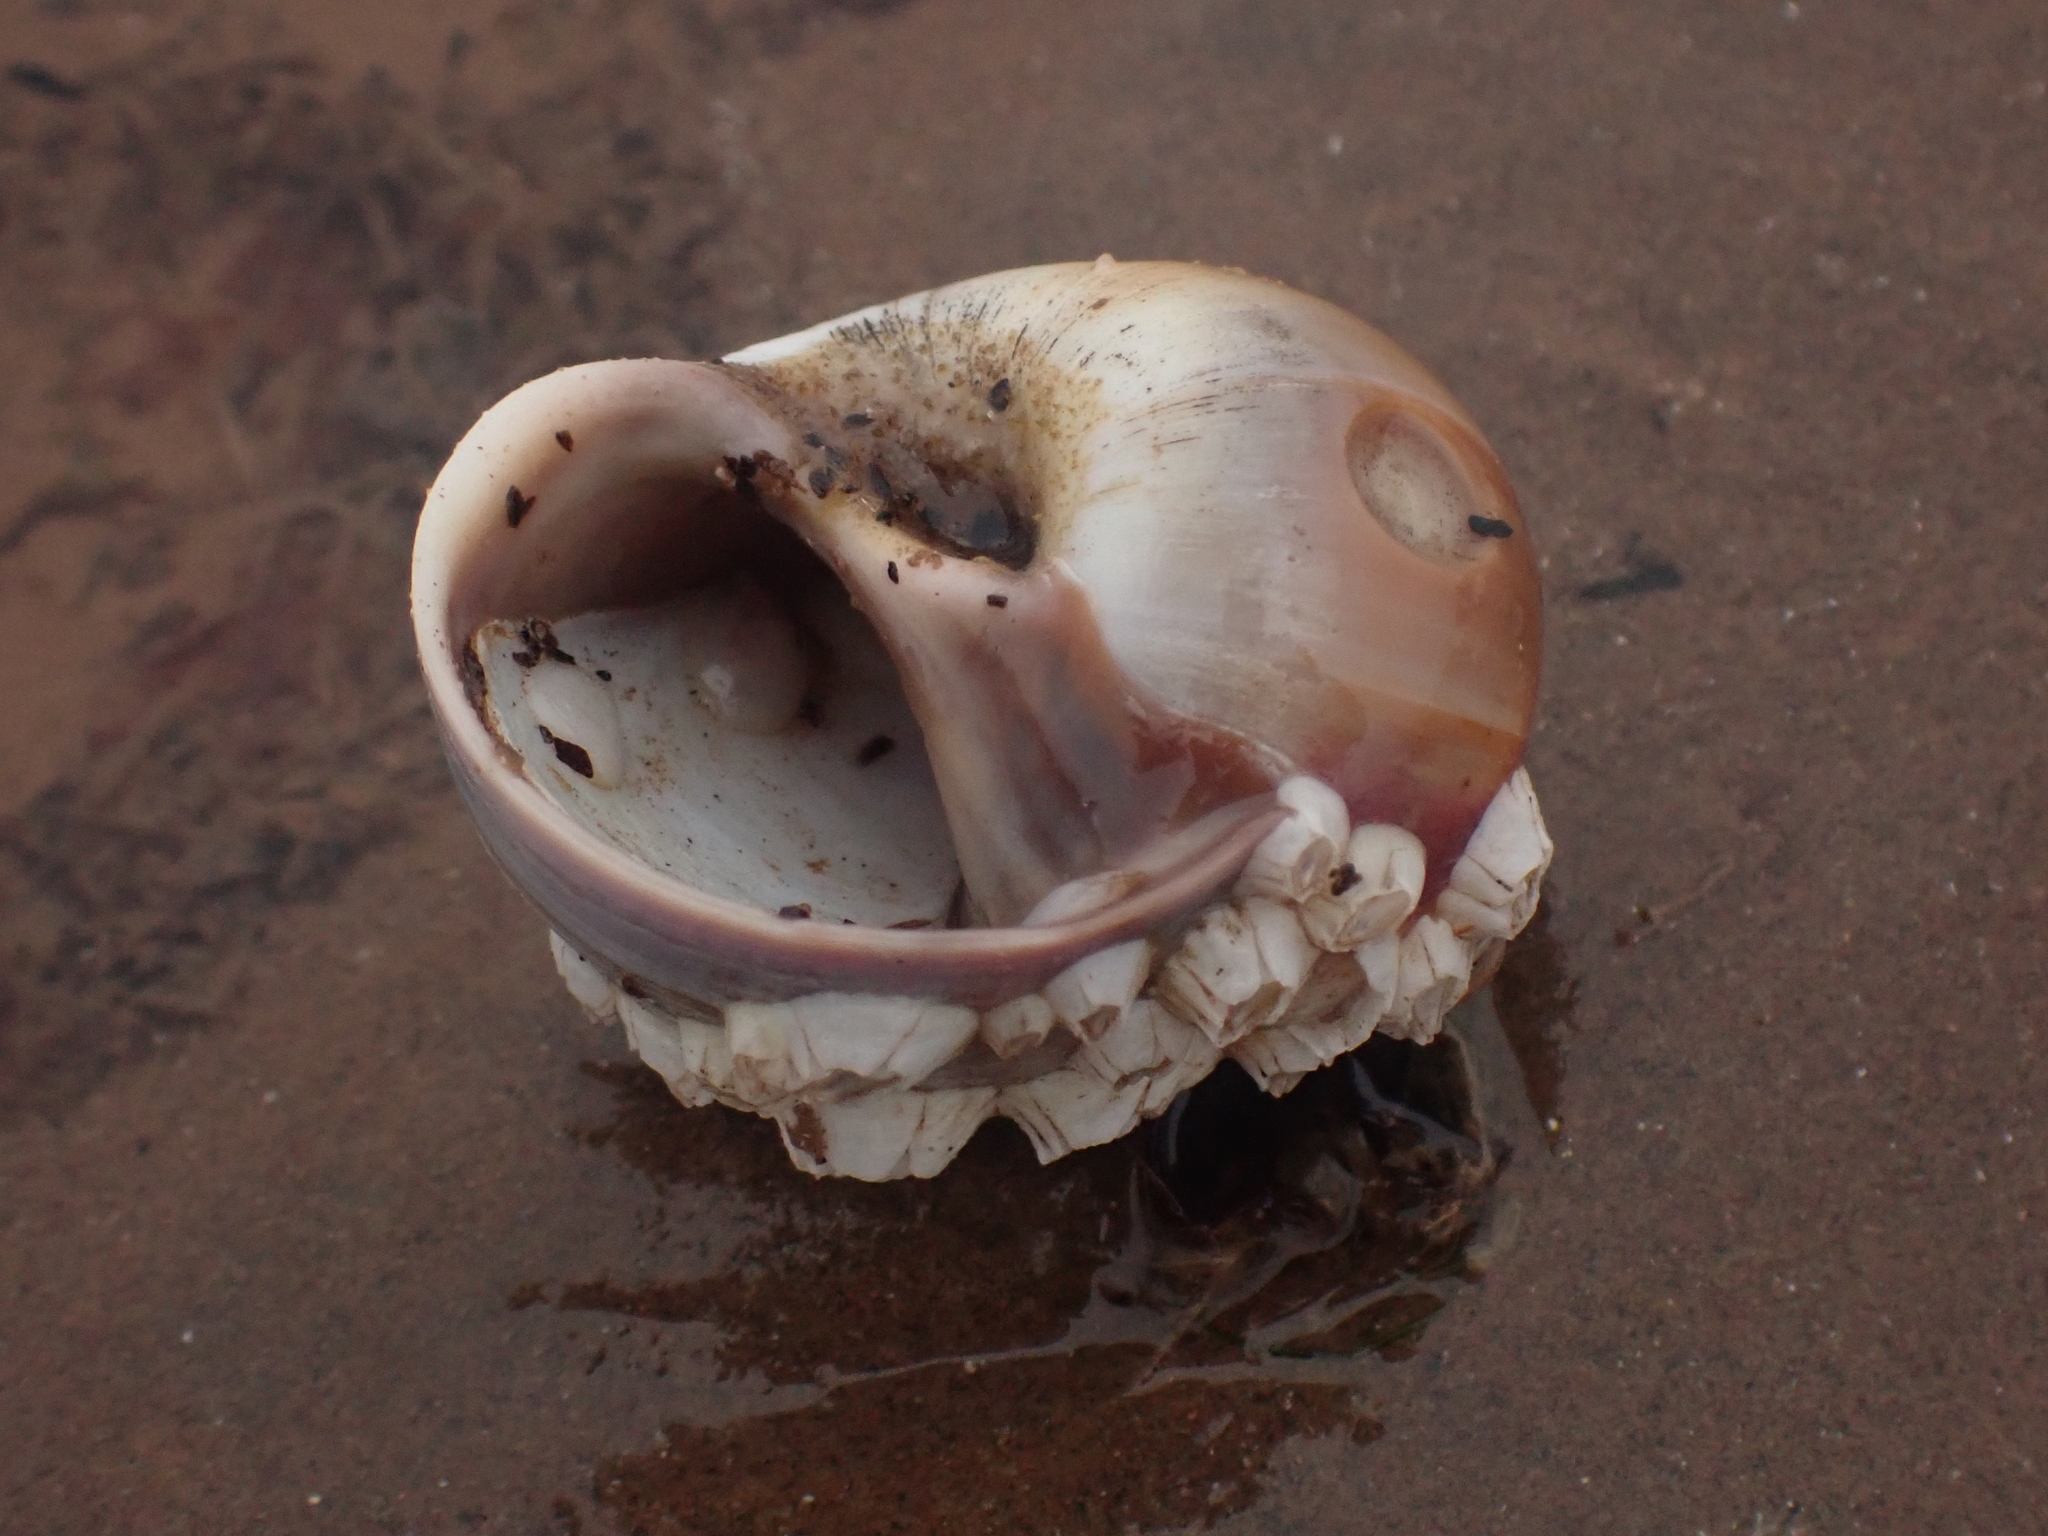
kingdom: Animalia
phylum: Mollusca
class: Gastropoda
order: Littorinimorpha
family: Calyptraeidae
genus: Crepidula
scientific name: Crepidula plana
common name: Eastern white slippersnail
